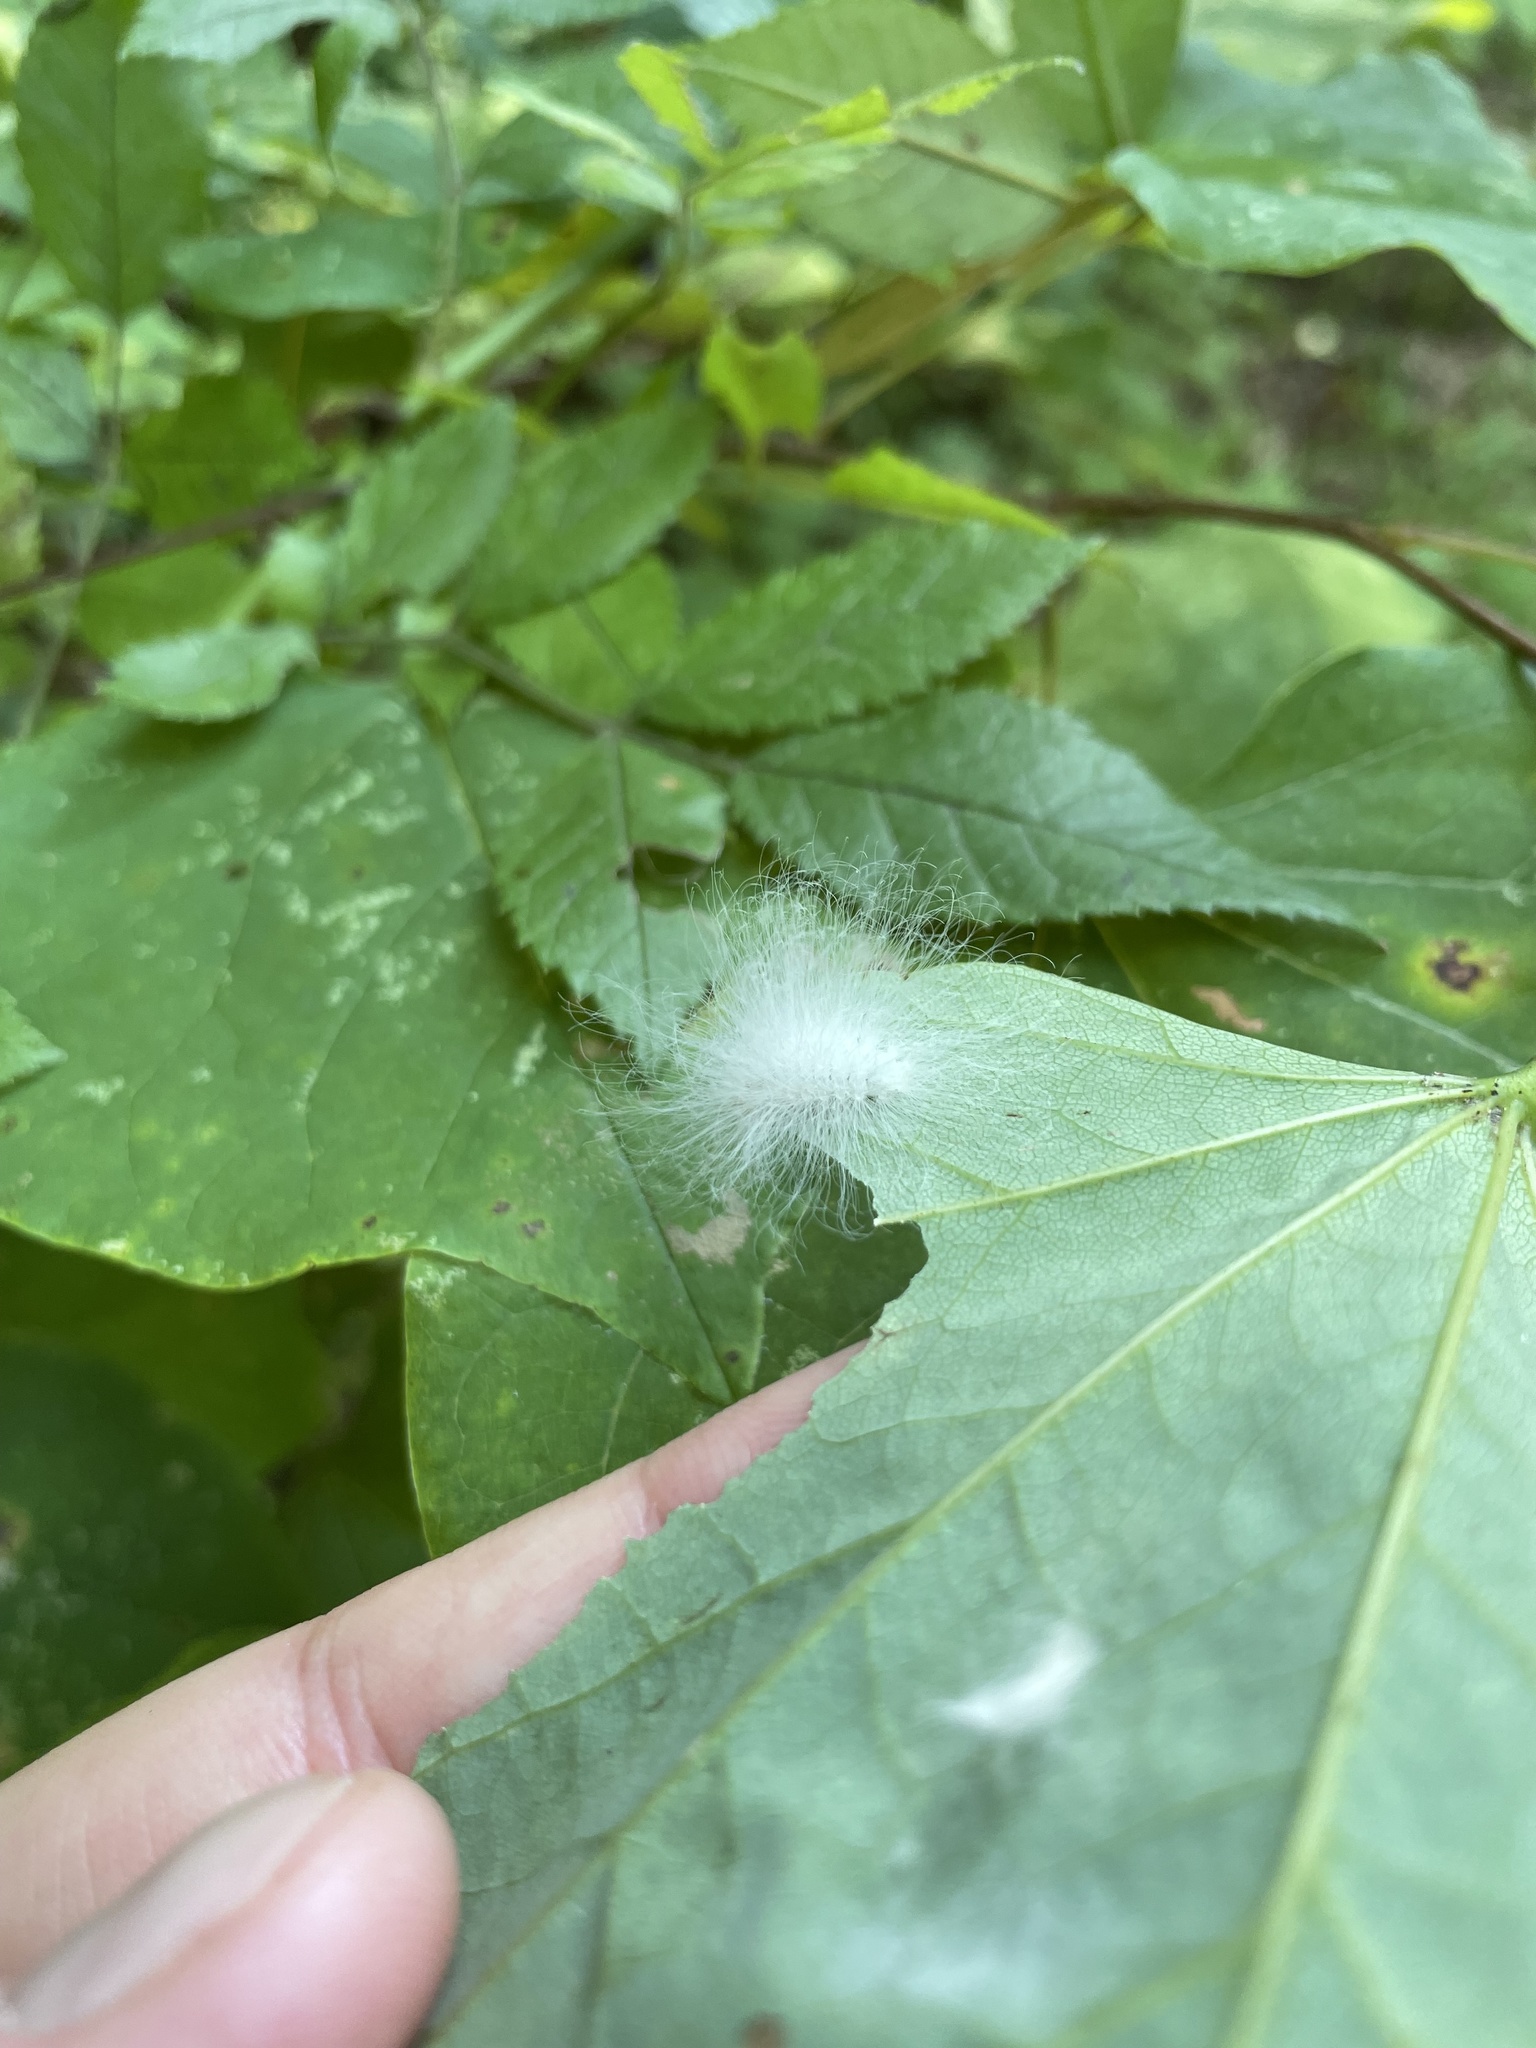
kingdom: Animalia
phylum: Arthropoda
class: Insecta
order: Lepidoptera
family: Megalopygidae
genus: Megalopyge
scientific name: Megalopyge crispata
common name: Black-waved flannel moth
